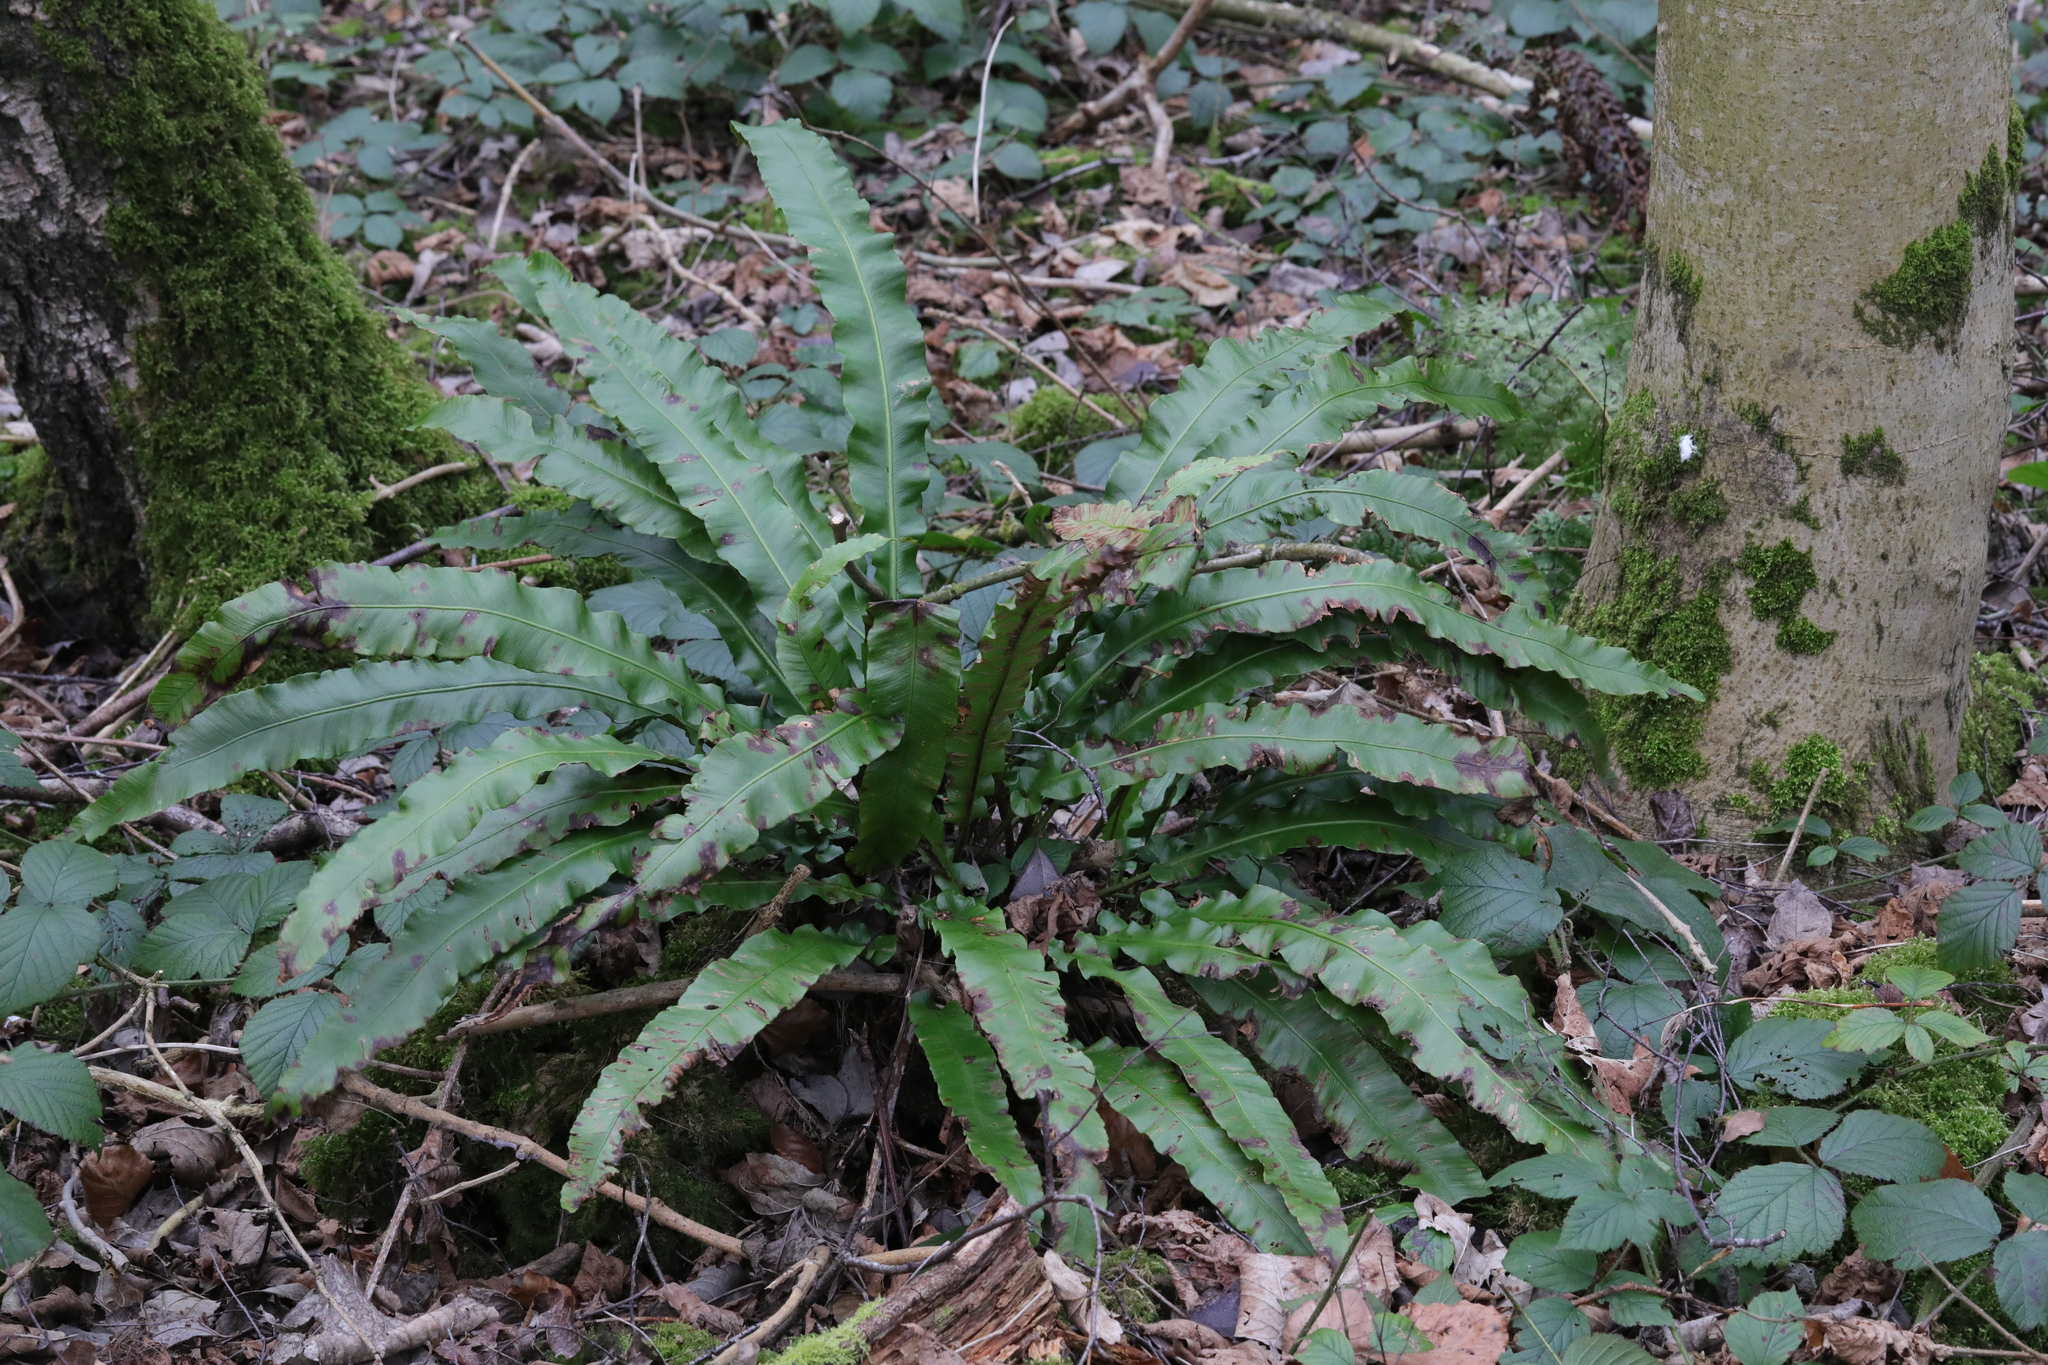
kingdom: Plantae
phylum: Tracheophyta
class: Polypodiopsida
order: Polypodiales
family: Aspleniaceae
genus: Asplenium
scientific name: Asplenium scolopendrium
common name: Hart's-tongue fern
